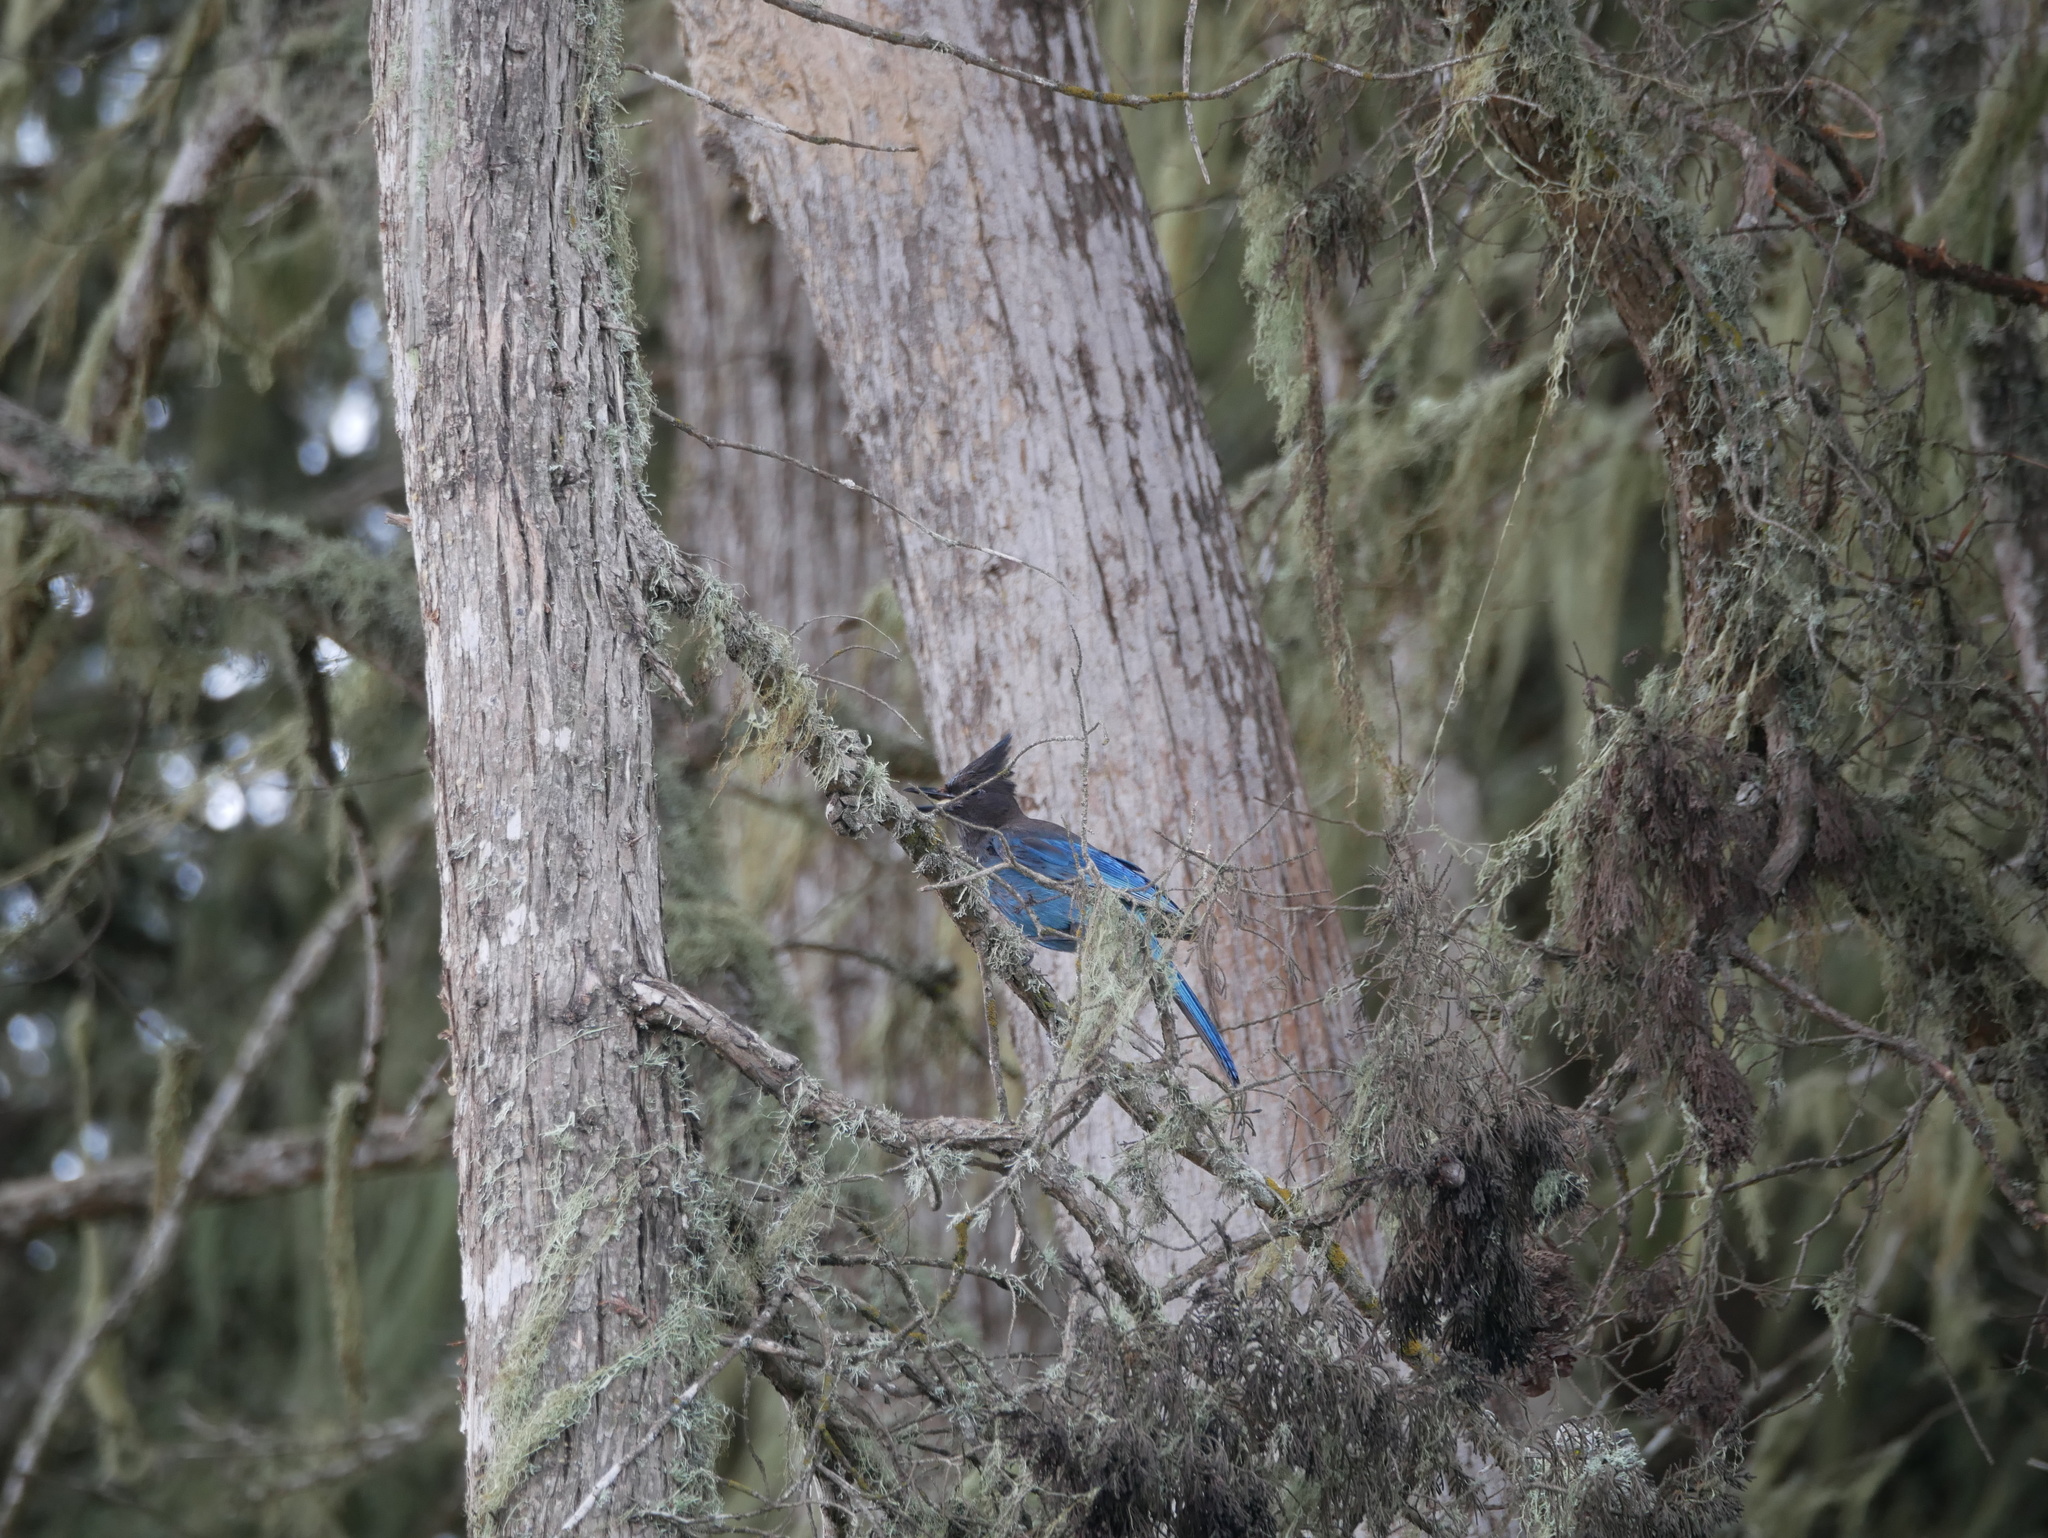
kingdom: Animalia
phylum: Chordata
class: Aves
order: Passeriformes
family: Corvidae
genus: Cyanocitta
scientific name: Cyanocitta stelleri
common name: Steller's jay
